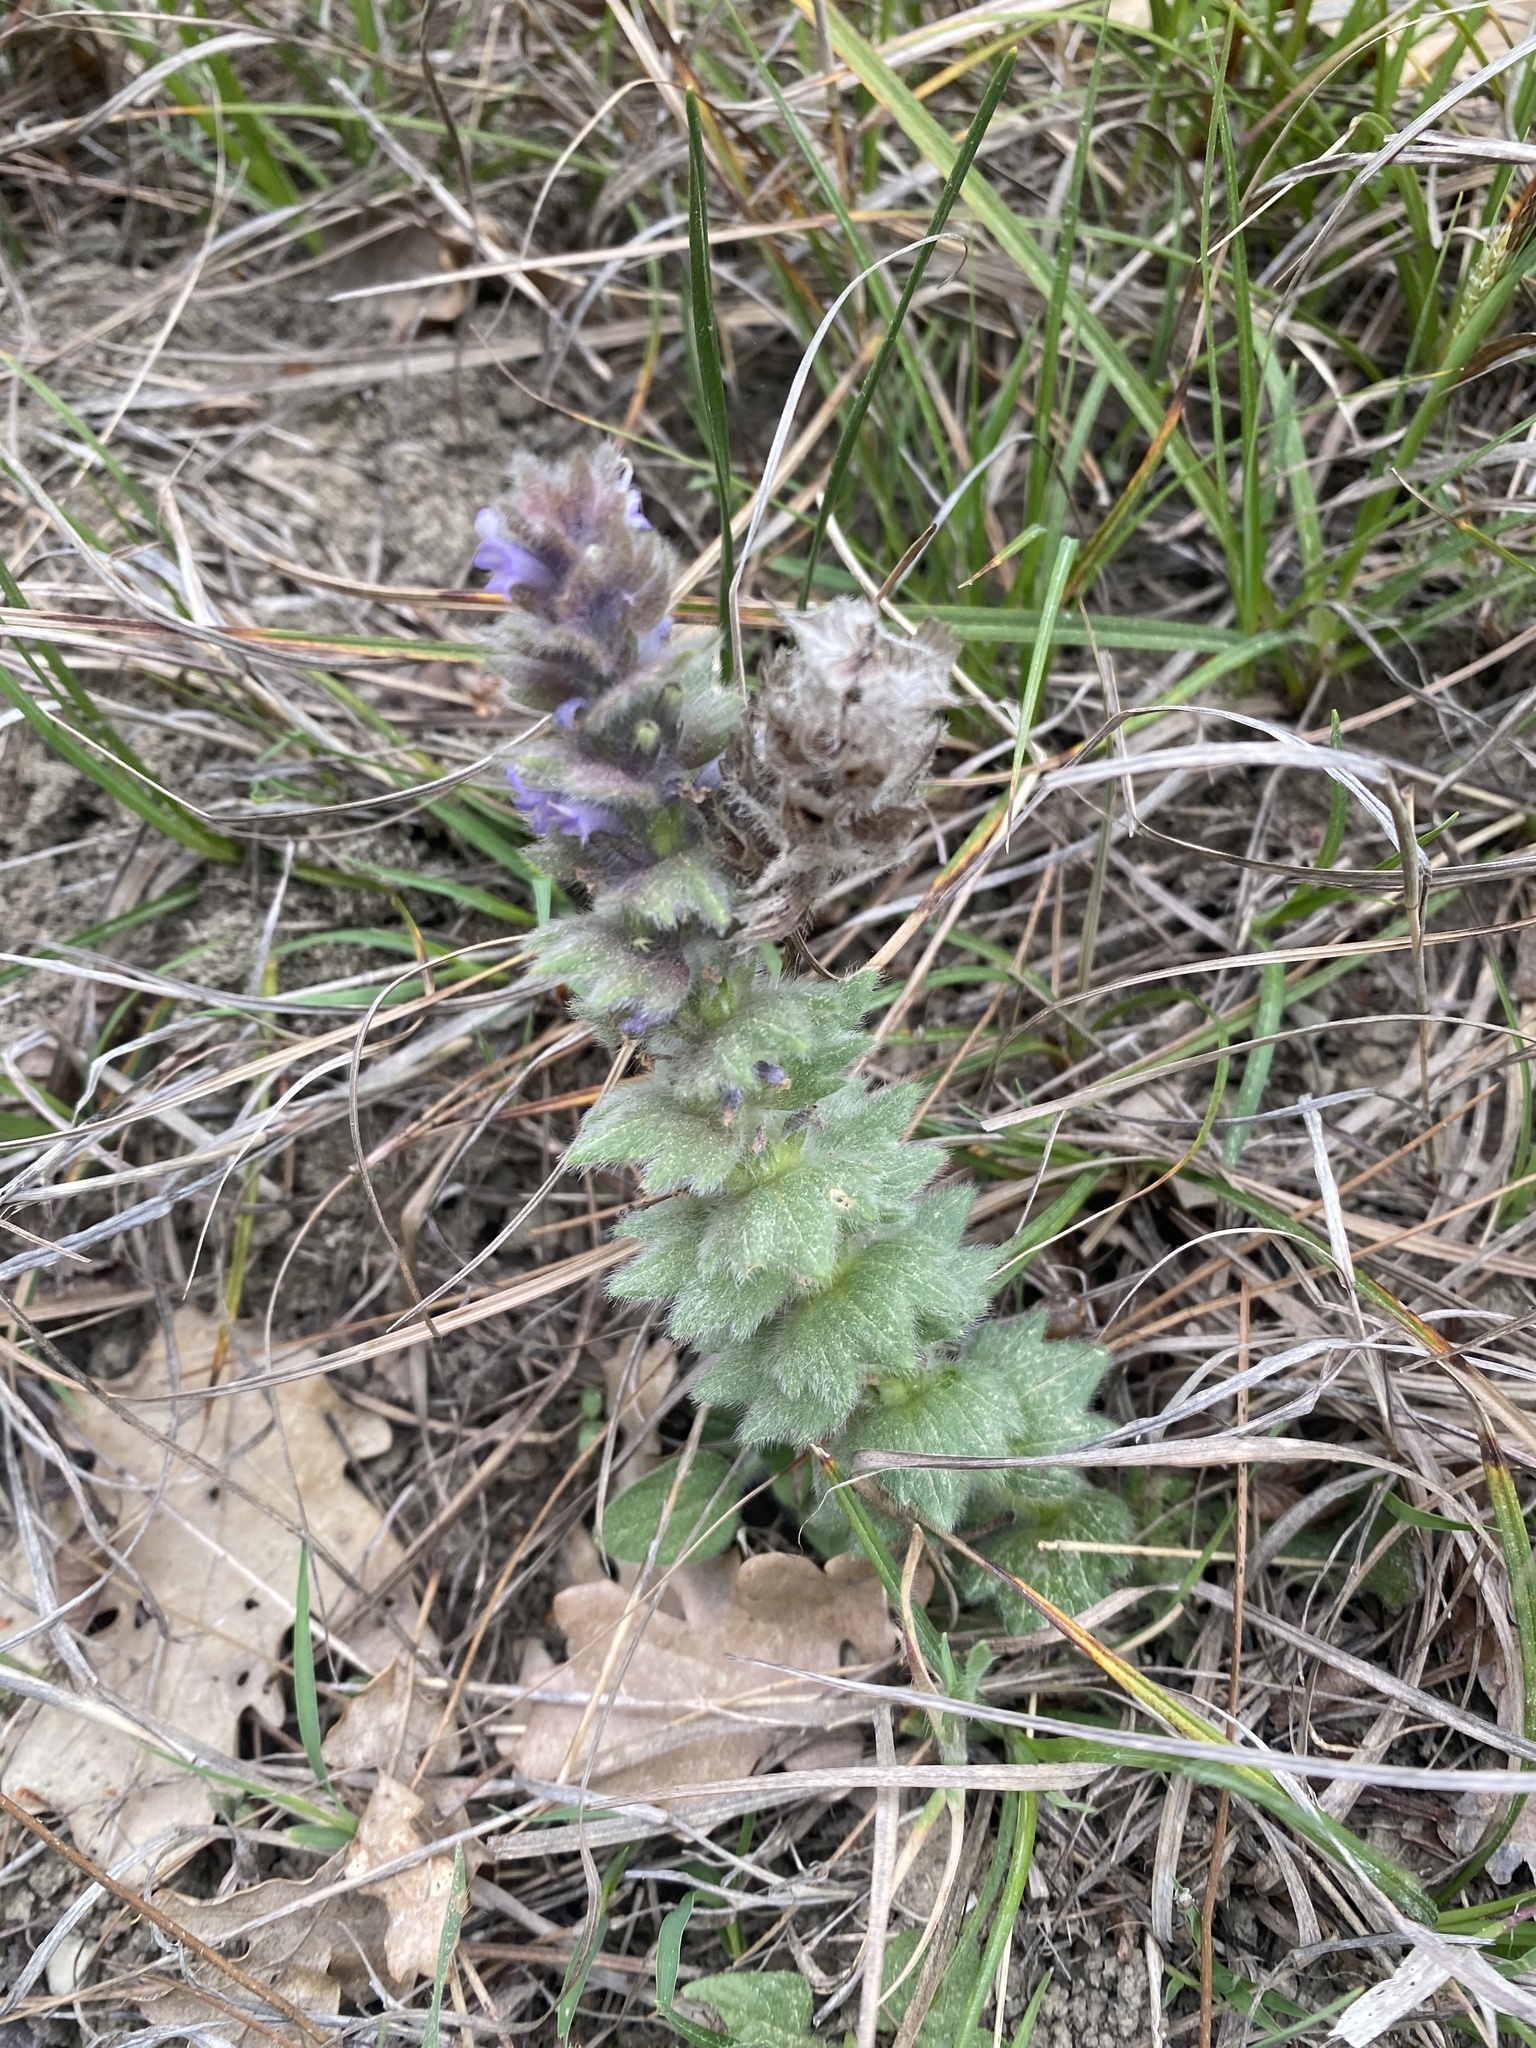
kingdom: Plantae
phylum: Tracheophyta
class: Magnoliopsida
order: Lamiales
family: Lamiaceae
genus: Ajuga
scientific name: Ajuga orientalis
